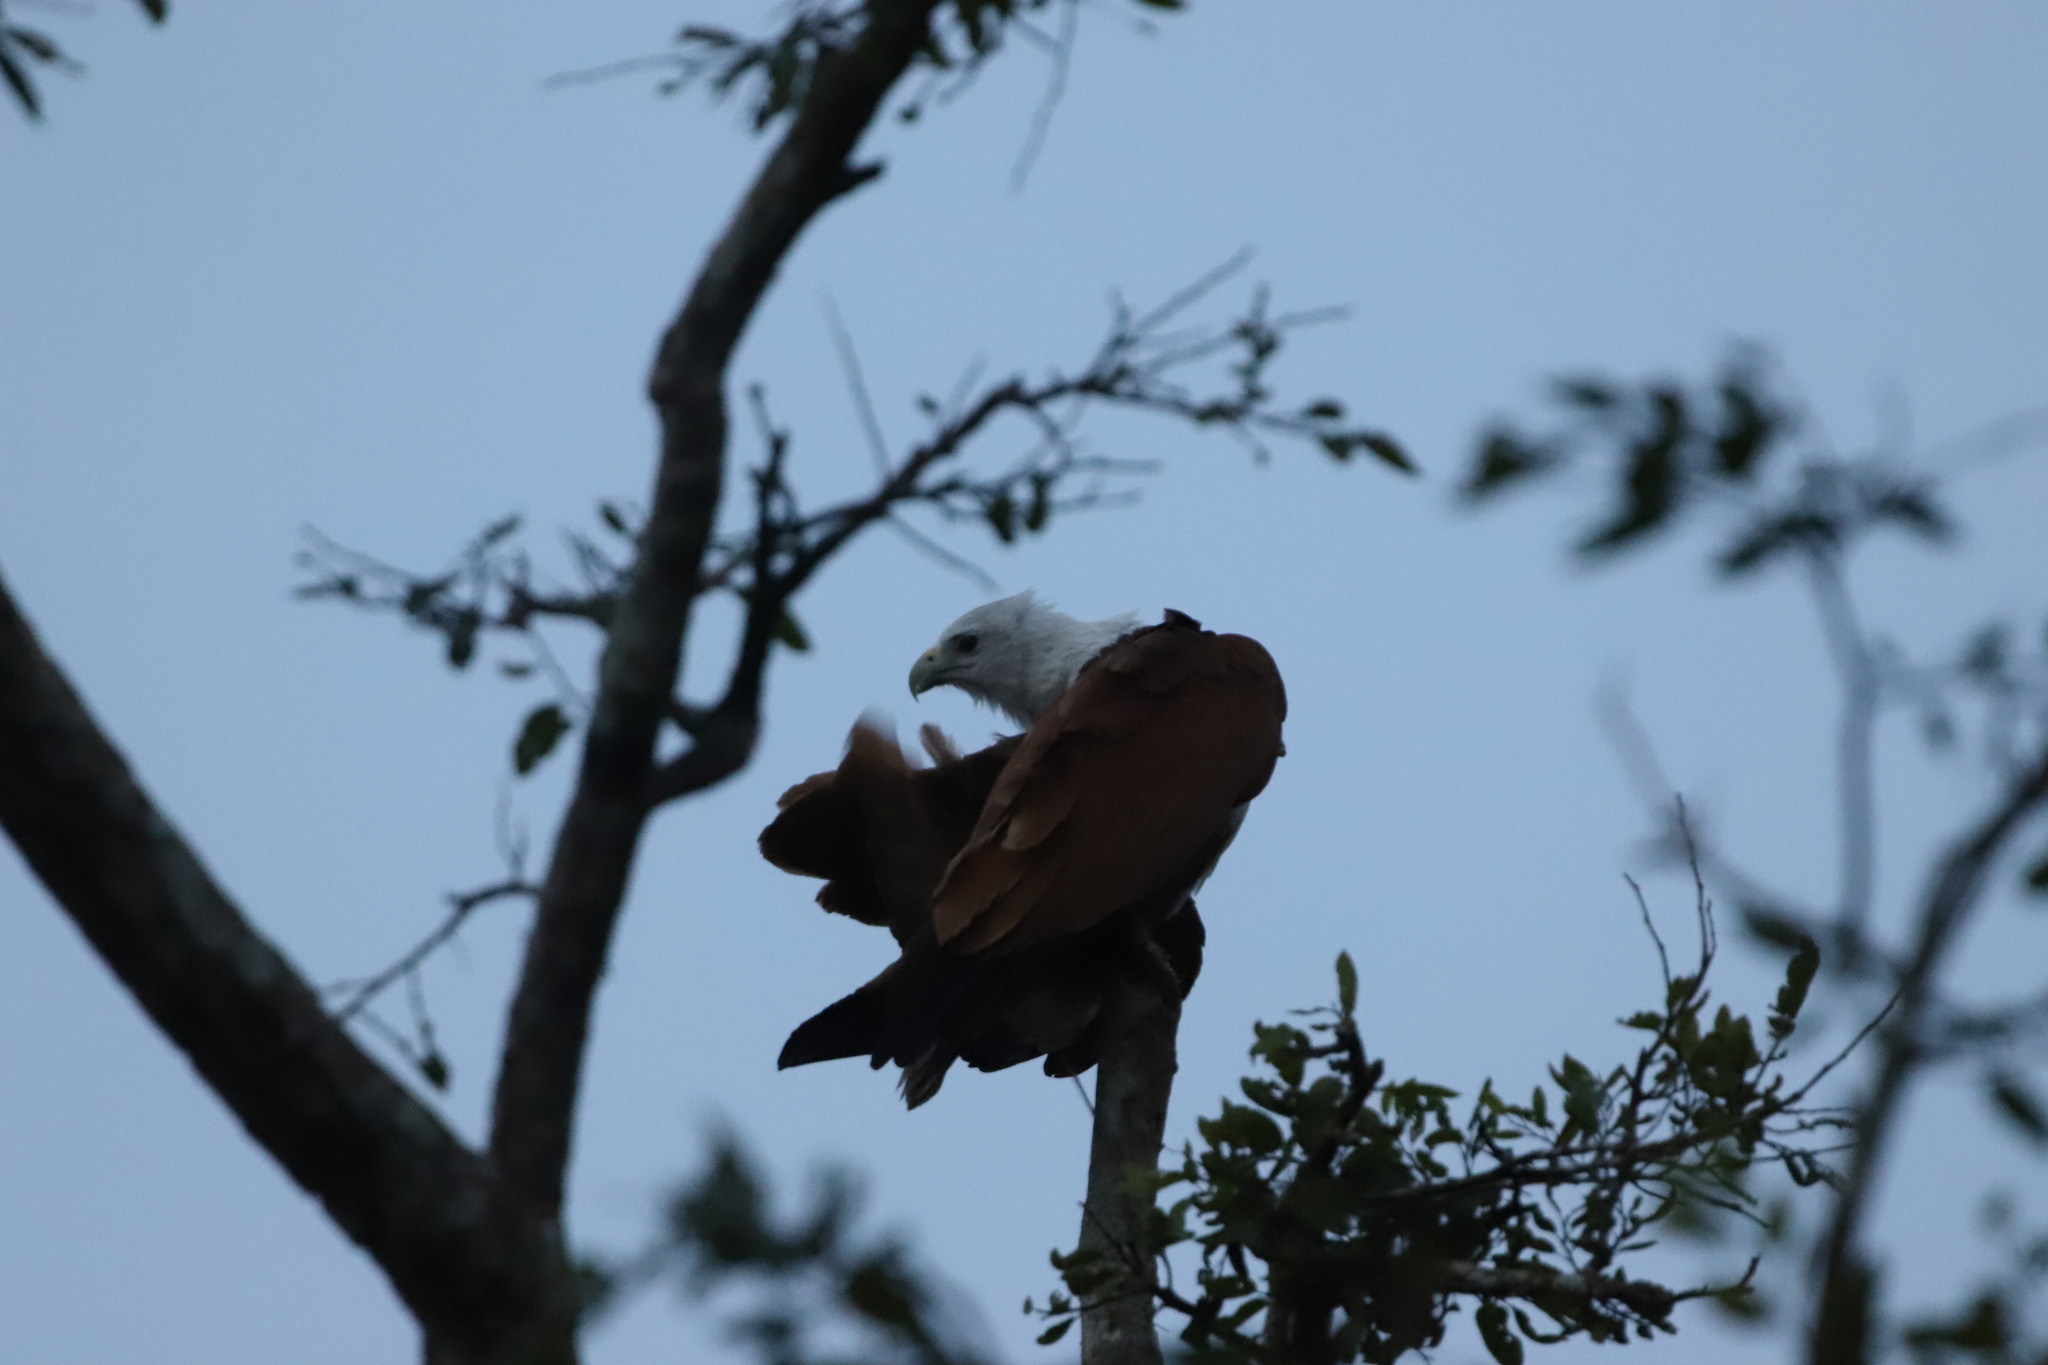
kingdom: Animalia
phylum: Chordata
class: Aves
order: Accipitriformes
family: Accipitridae
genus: Haliastur
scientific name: Haliastur indus
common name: Brahminy kite
